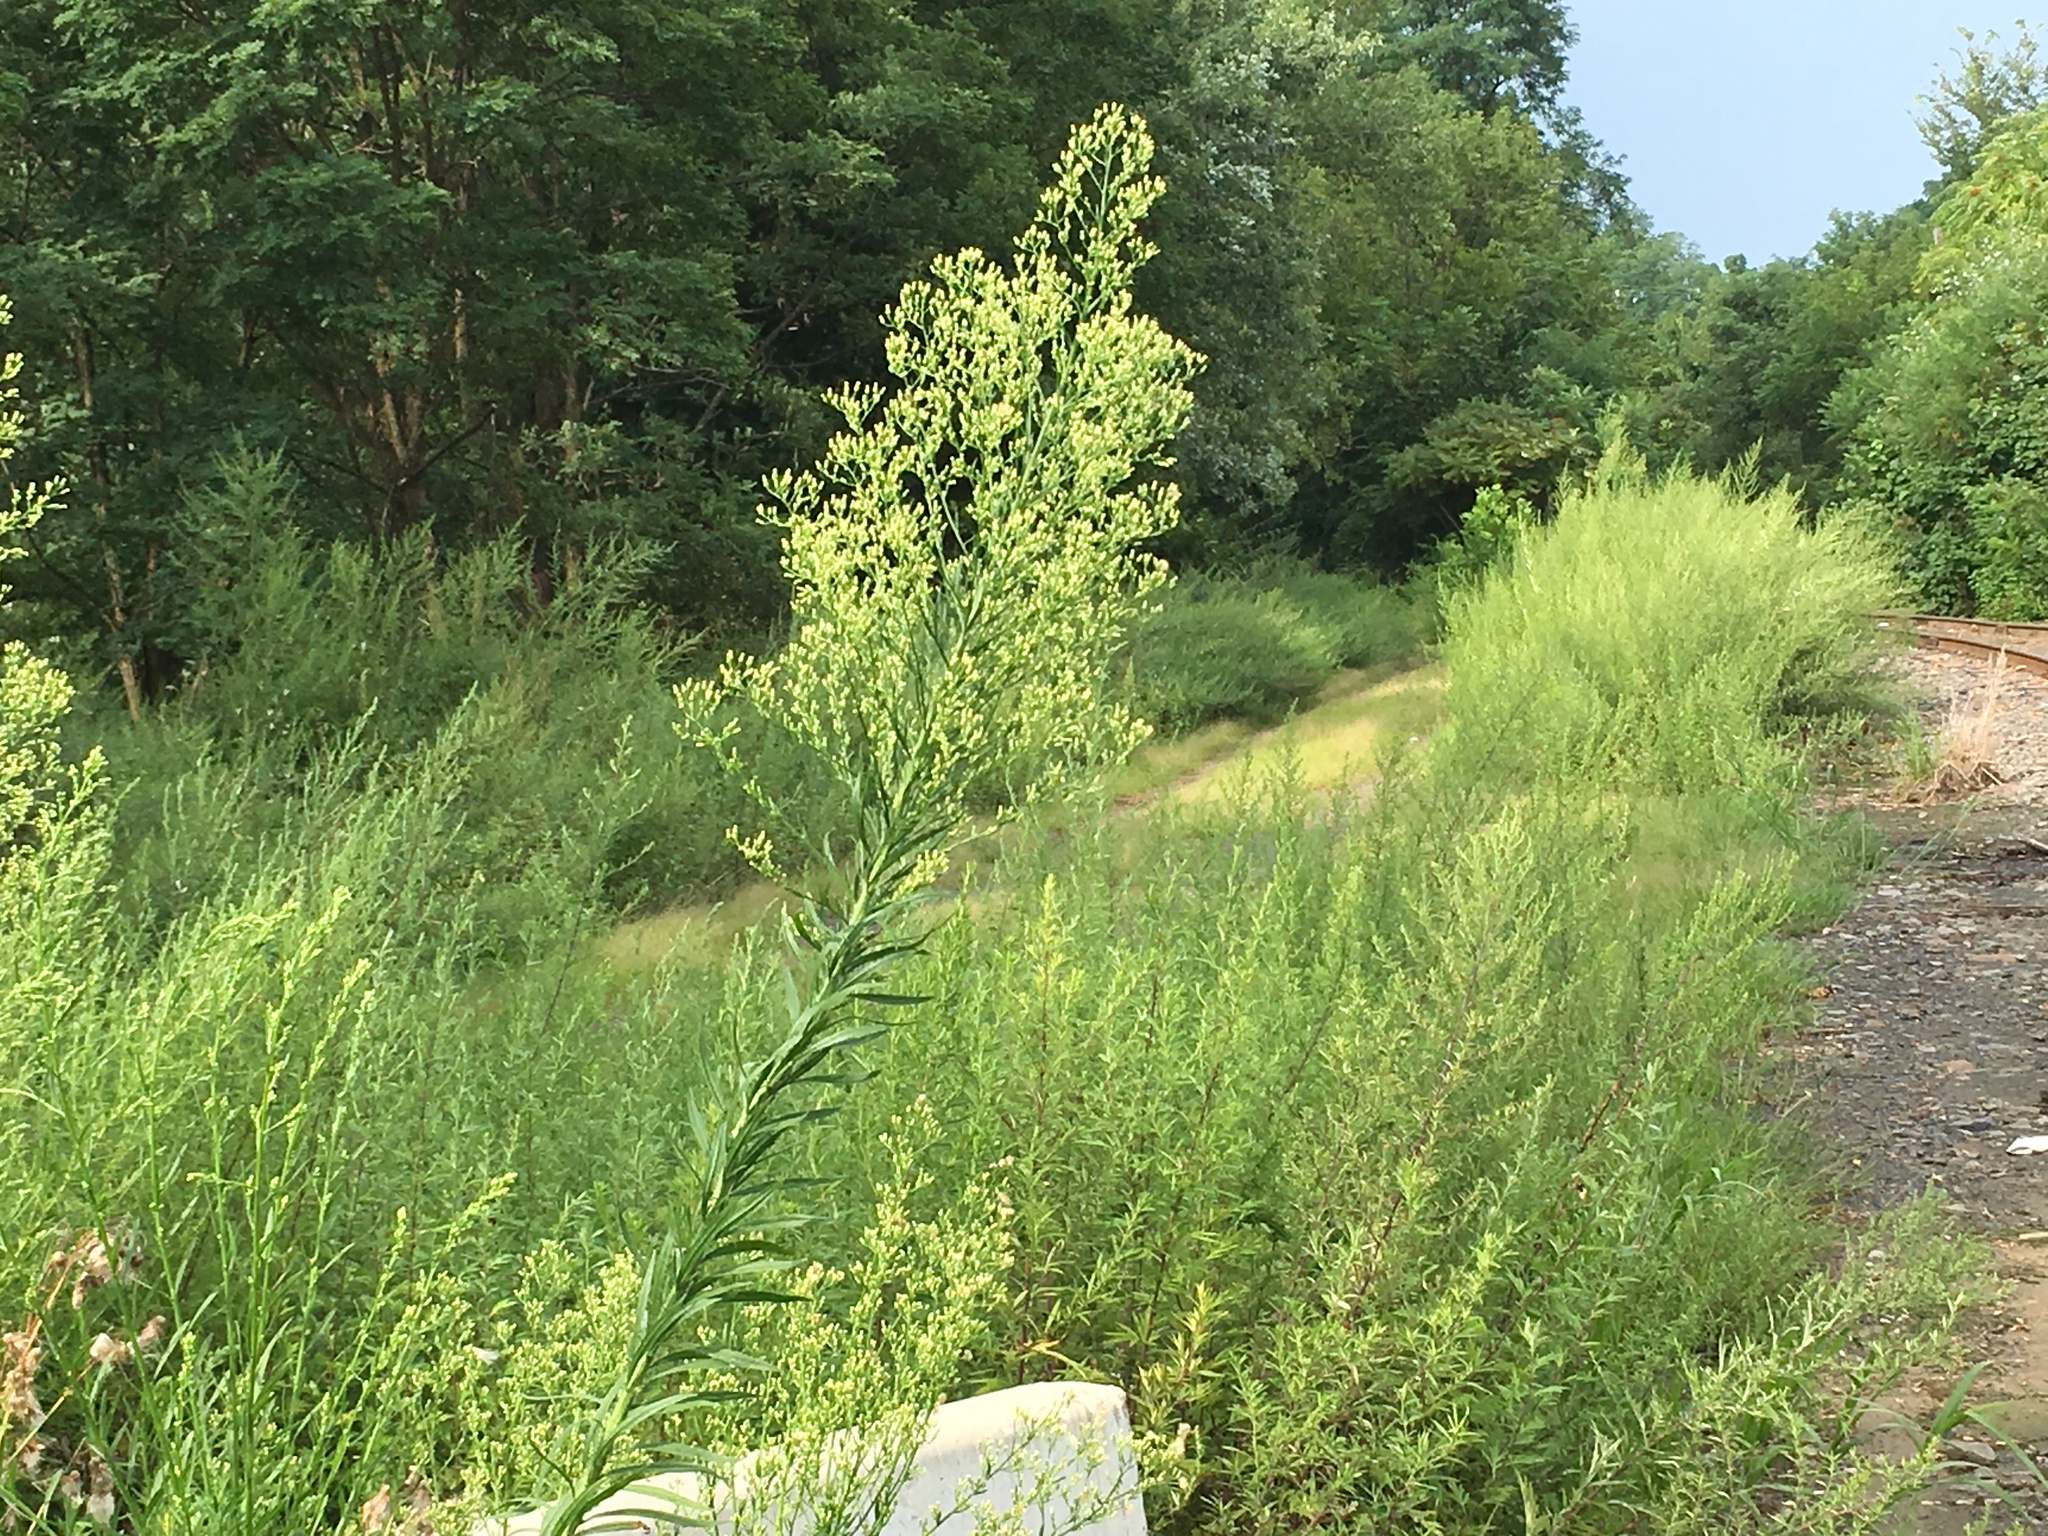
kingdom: Plantae
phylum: Tracheophyta
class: Magnoliopsida
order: Asterales
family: Asteraceae
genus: Erigeron
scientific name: Erigeron canadensis
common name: Canadian fleabane
